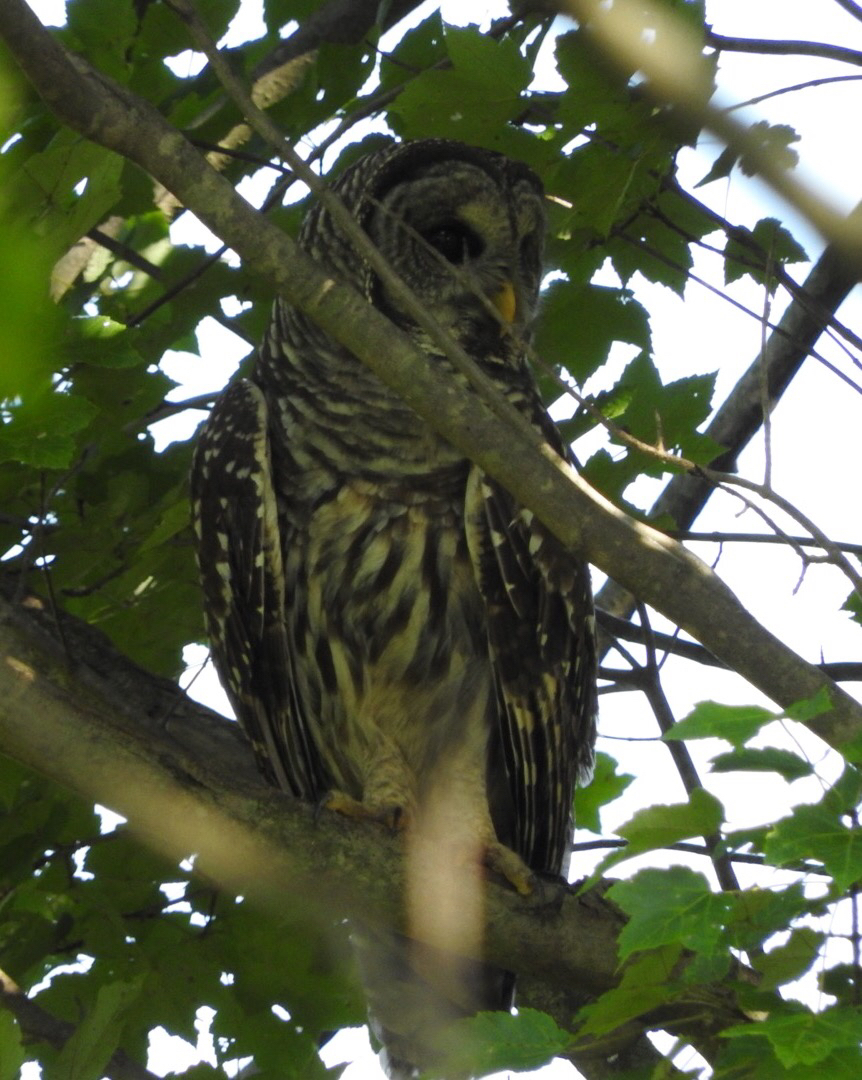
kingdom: Animalia
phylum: Chordata
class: Aves
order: Strigiformes
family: Strigidae
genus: Strix
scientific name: Strix varia
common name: Barred owl
